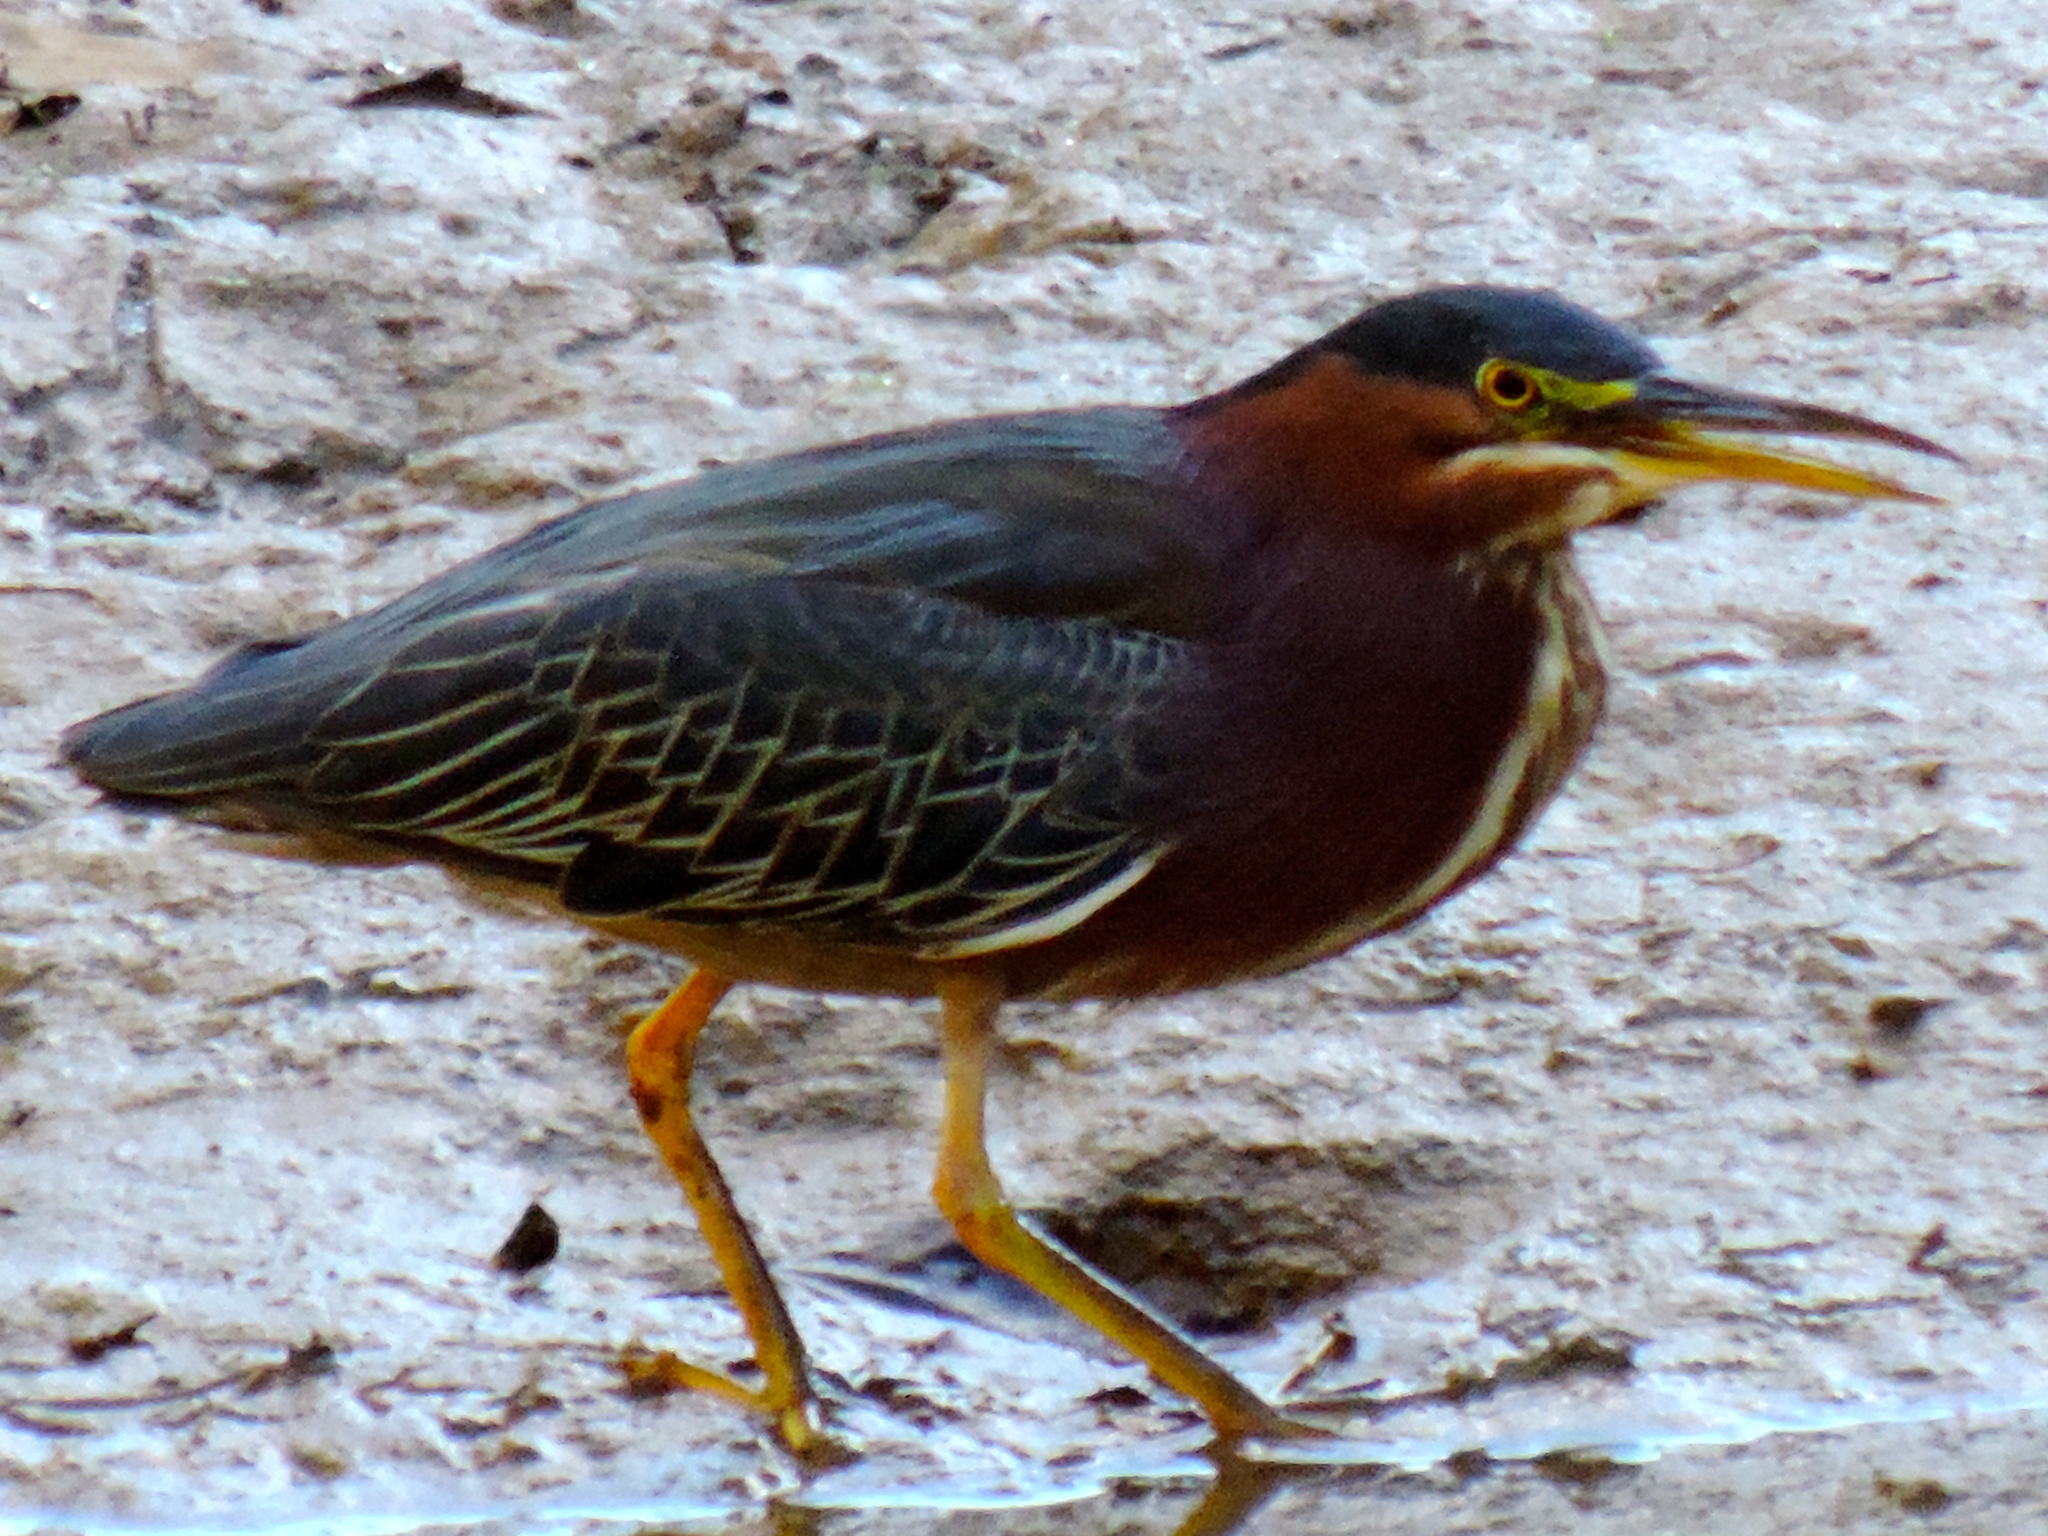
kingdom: Animalia
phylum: Chordata
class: Aves
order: Pelecaniformes
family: Ardeidae
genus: Butorides
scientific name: Butorides virescens
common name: Green heron
